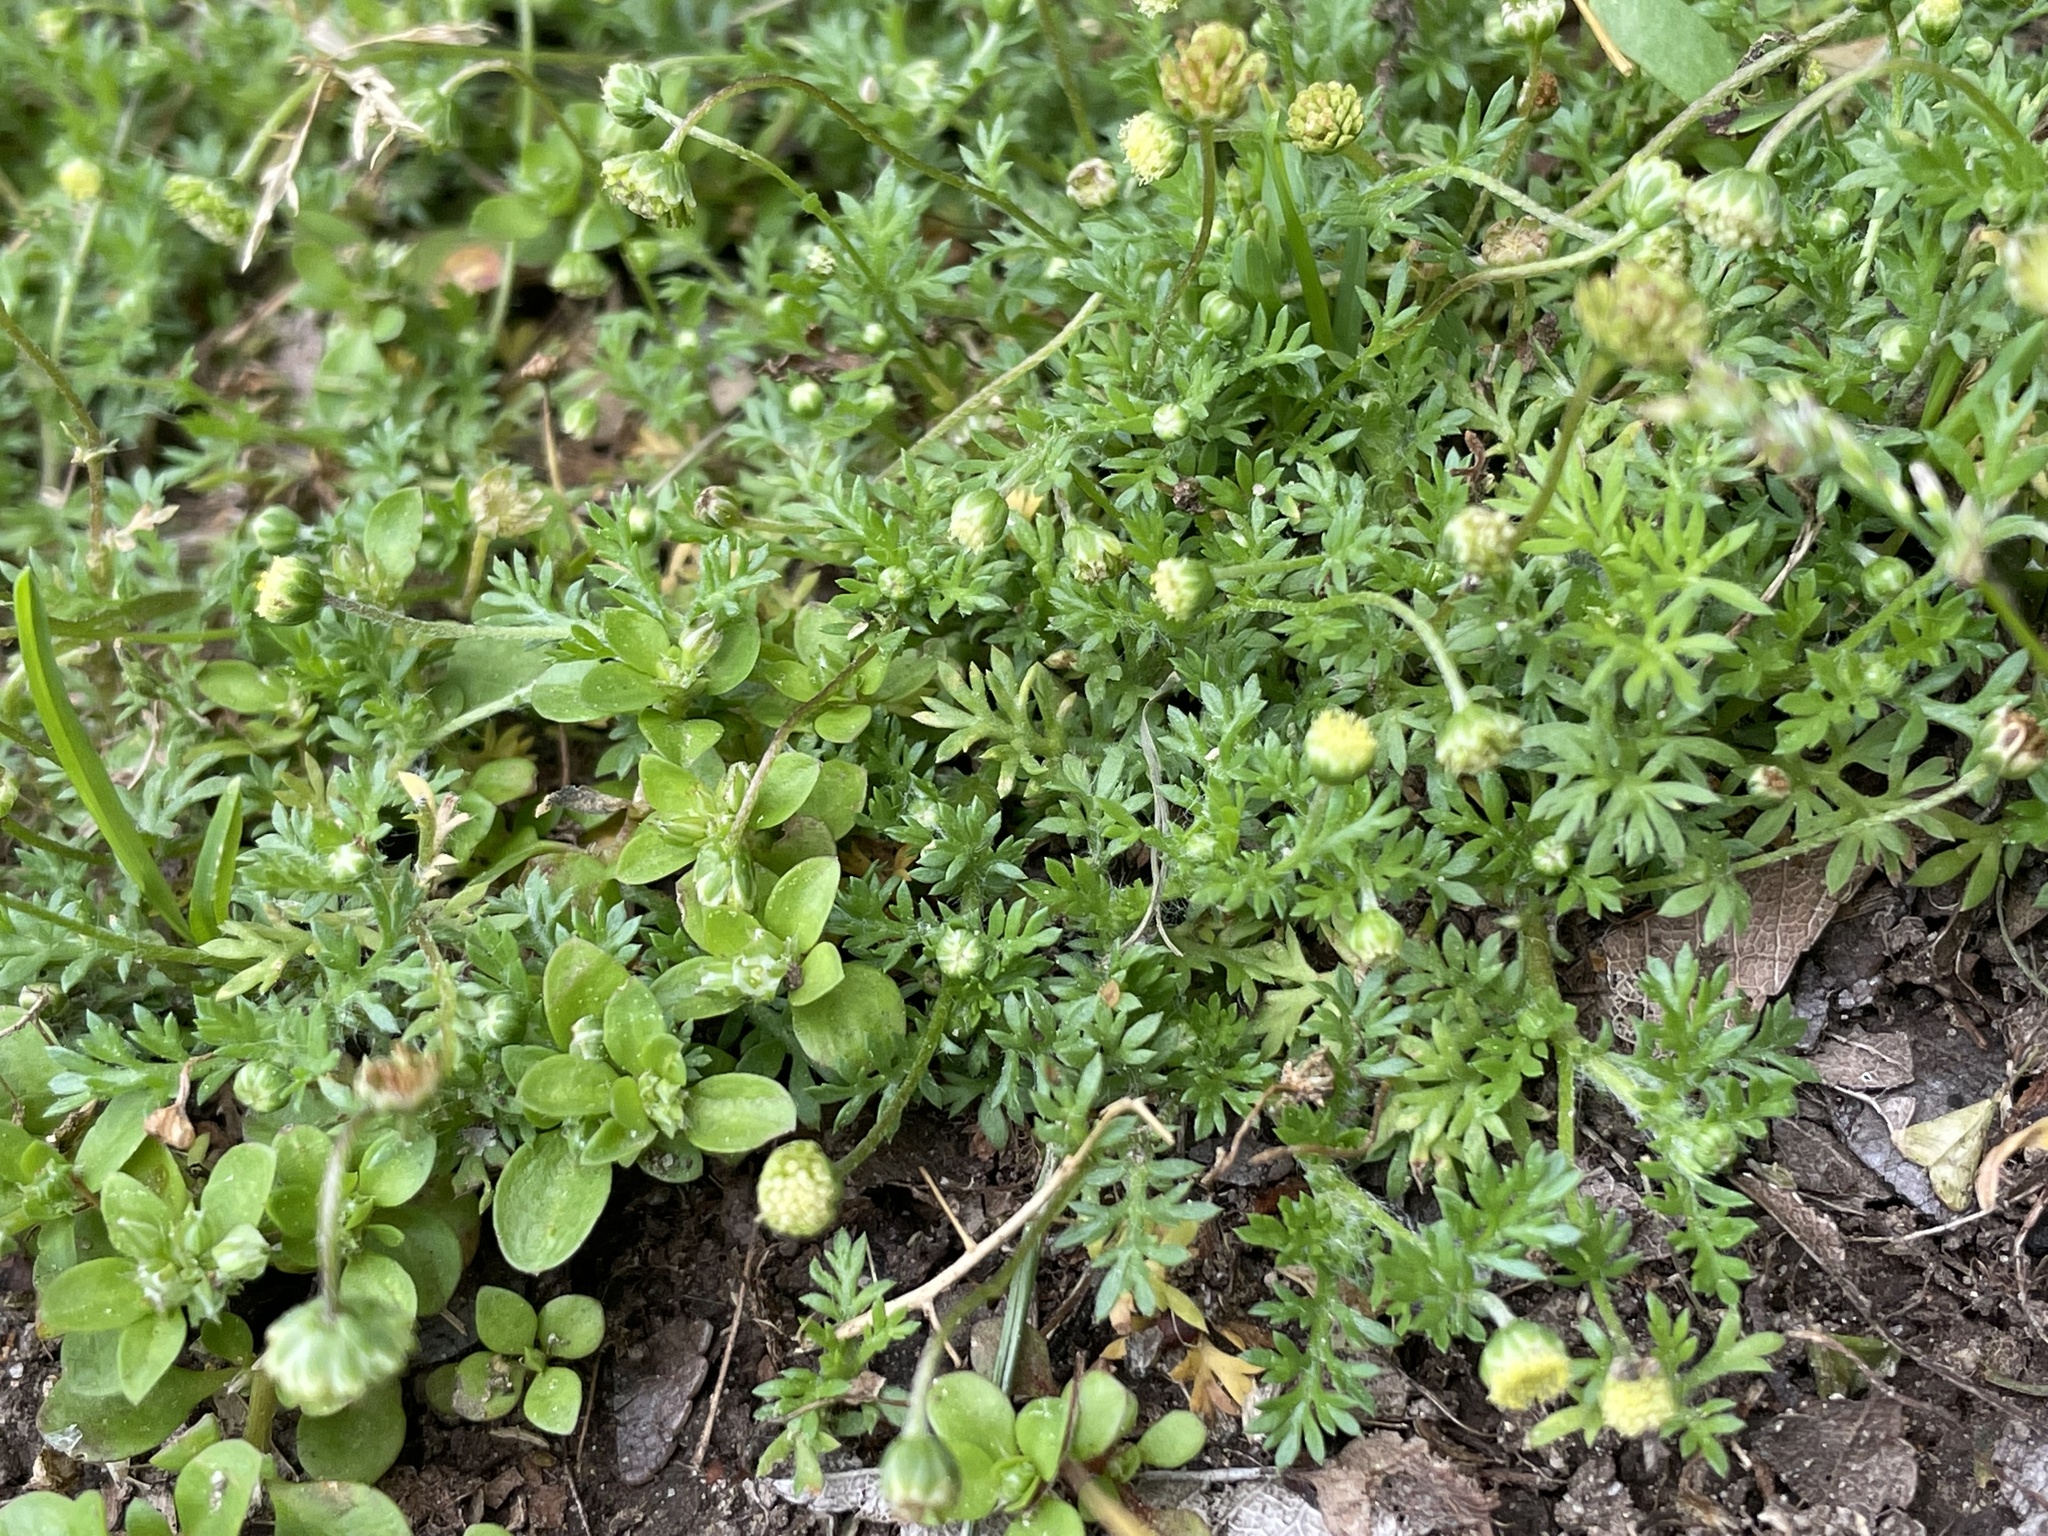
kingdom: Plantae
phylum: Tracheophyta
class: Magnoliopsida
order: Asterales
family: Asteraceae
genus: Cotula
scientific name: Cotula australis
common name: Australian waterbuttons
